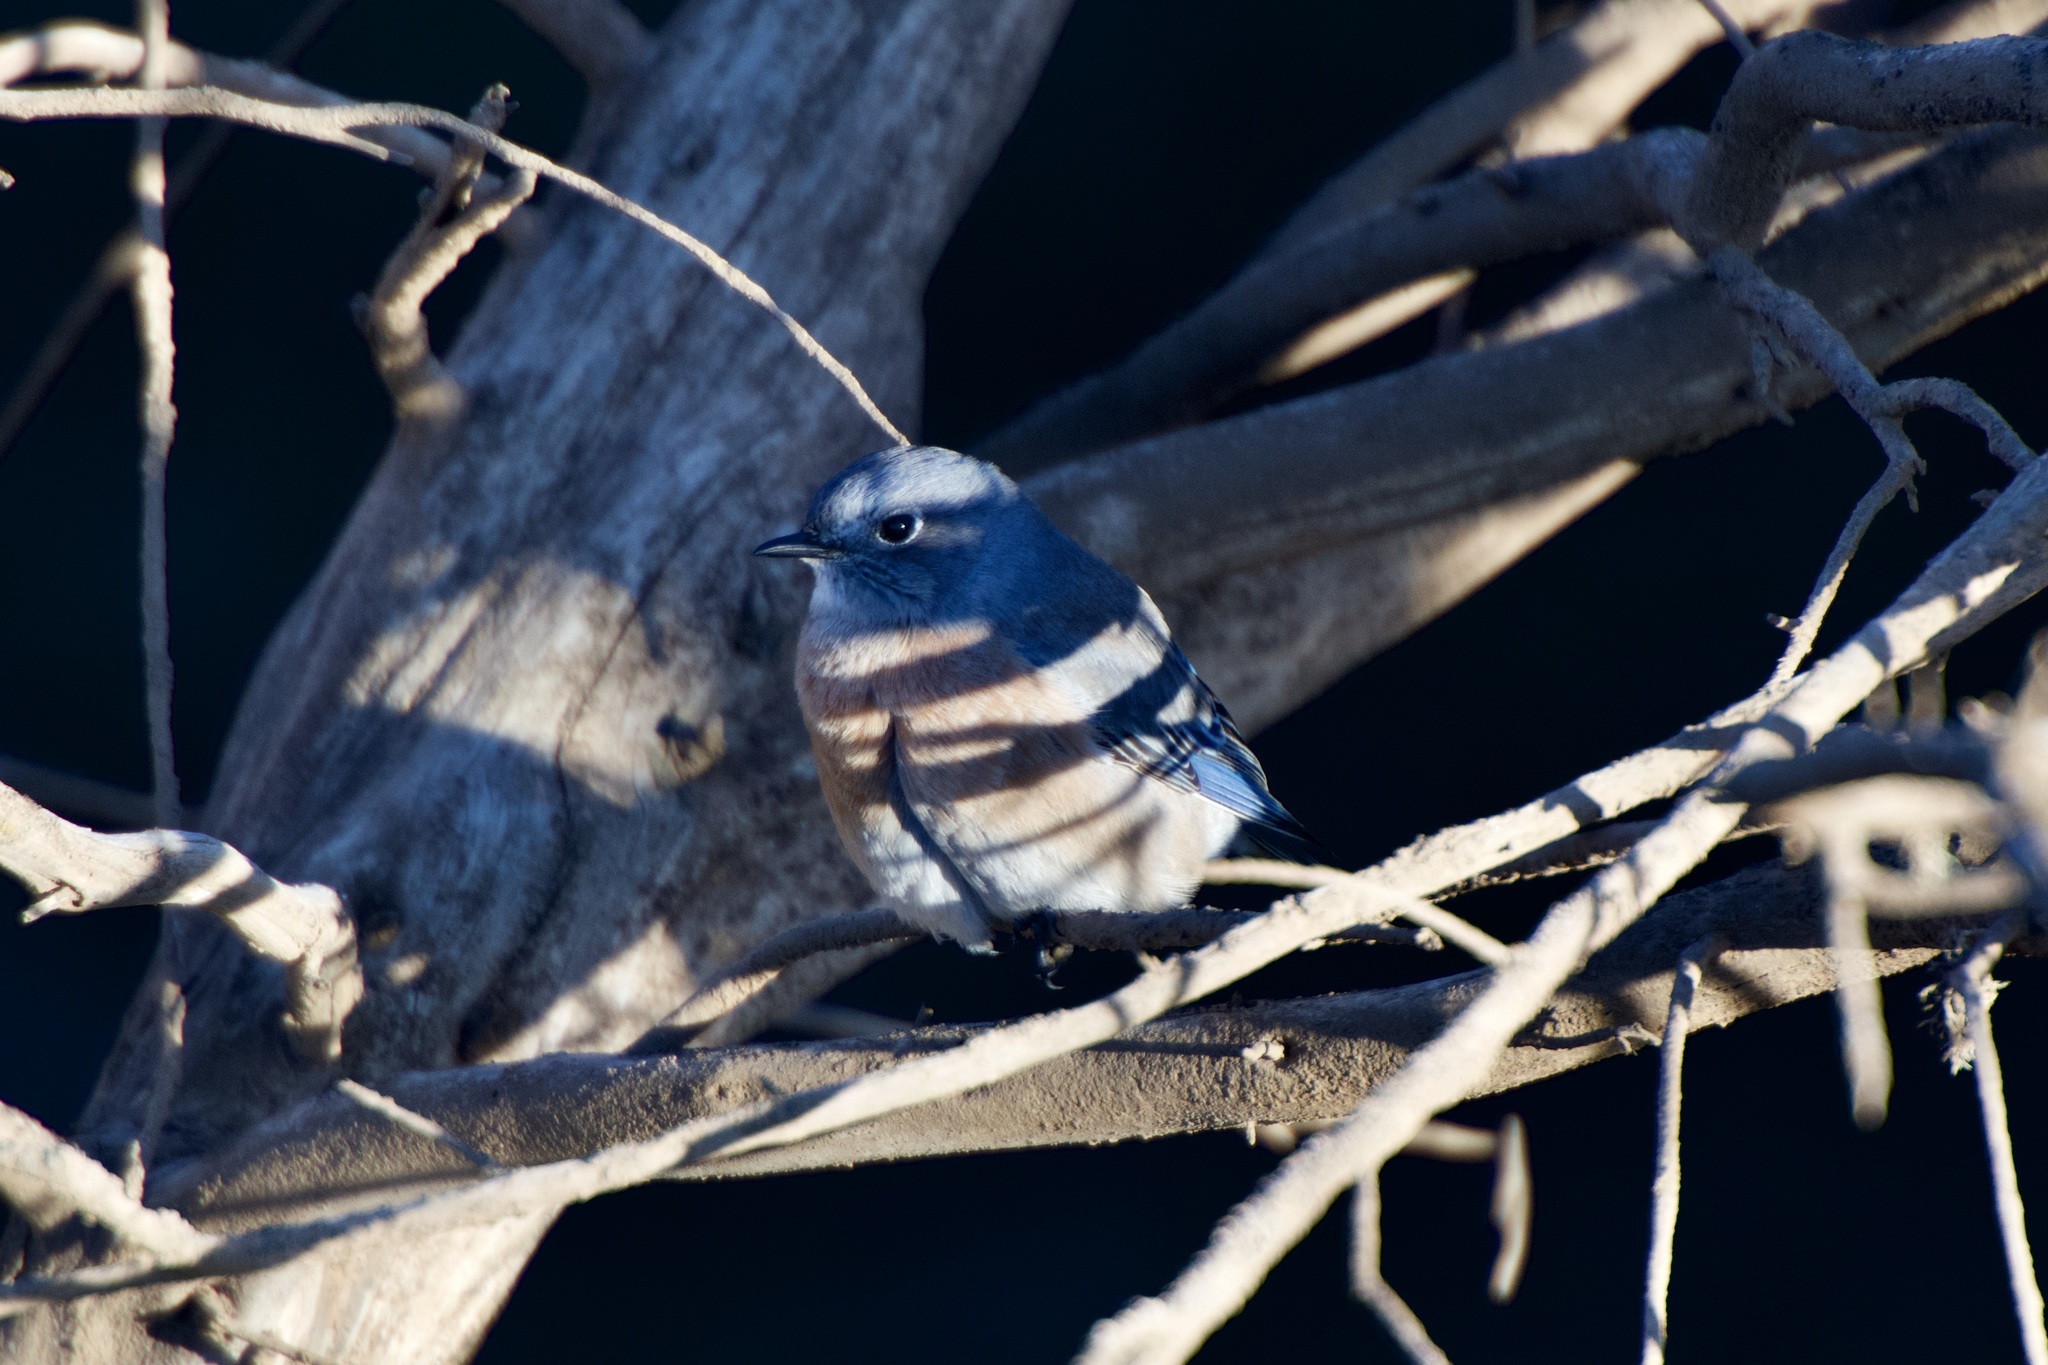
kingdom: Animalia
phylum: Chordata
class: Aves
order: Passeriformes
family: Turdidae
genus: Sialia
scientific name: Sialia mexicana
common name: Western bluebird
